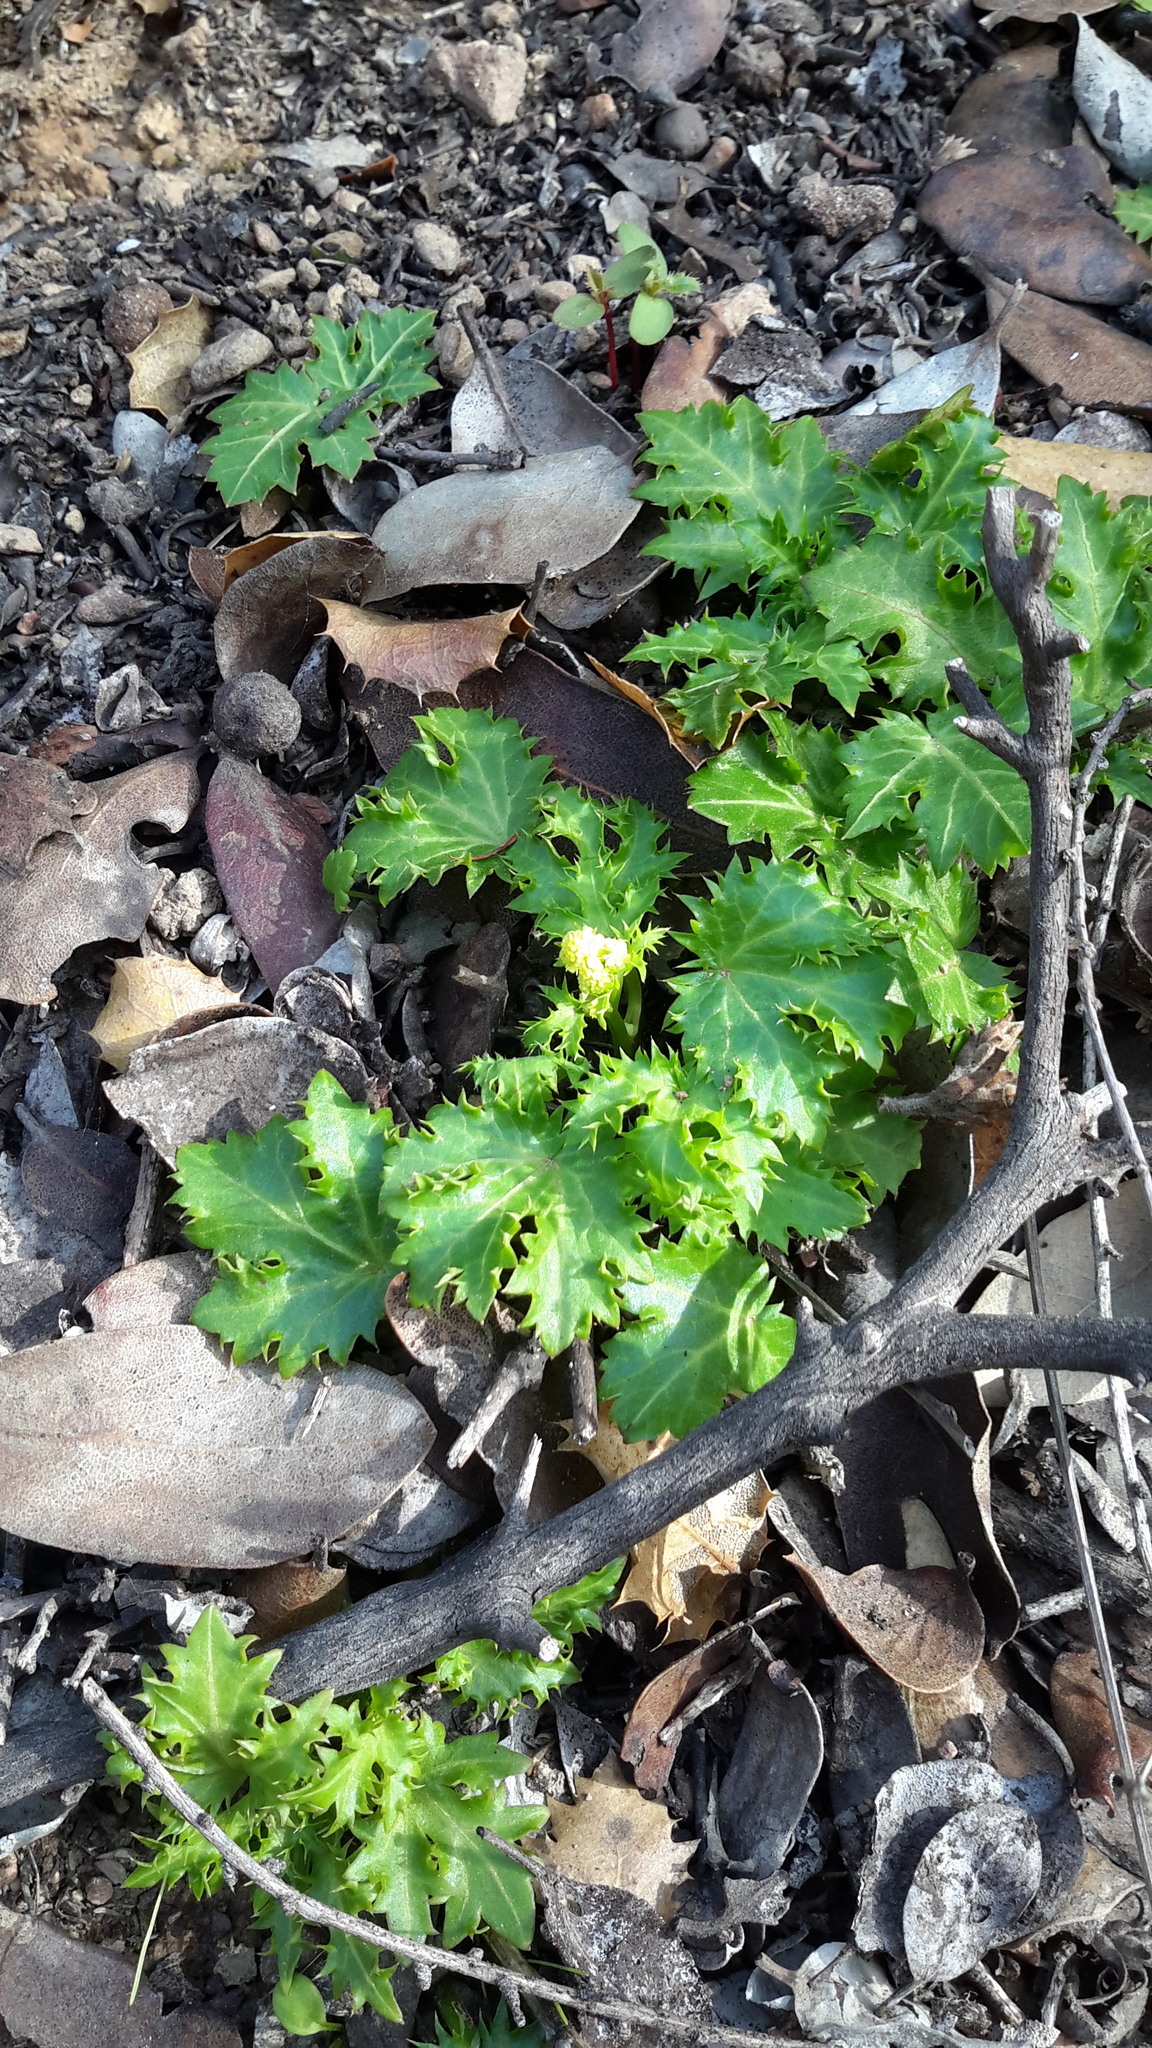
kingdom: Plantae
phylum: Tracheophyta
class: Magnoliopsida
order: Apiales
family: Apiaceae
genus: Sanicula
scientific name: Sanicula laciniata
